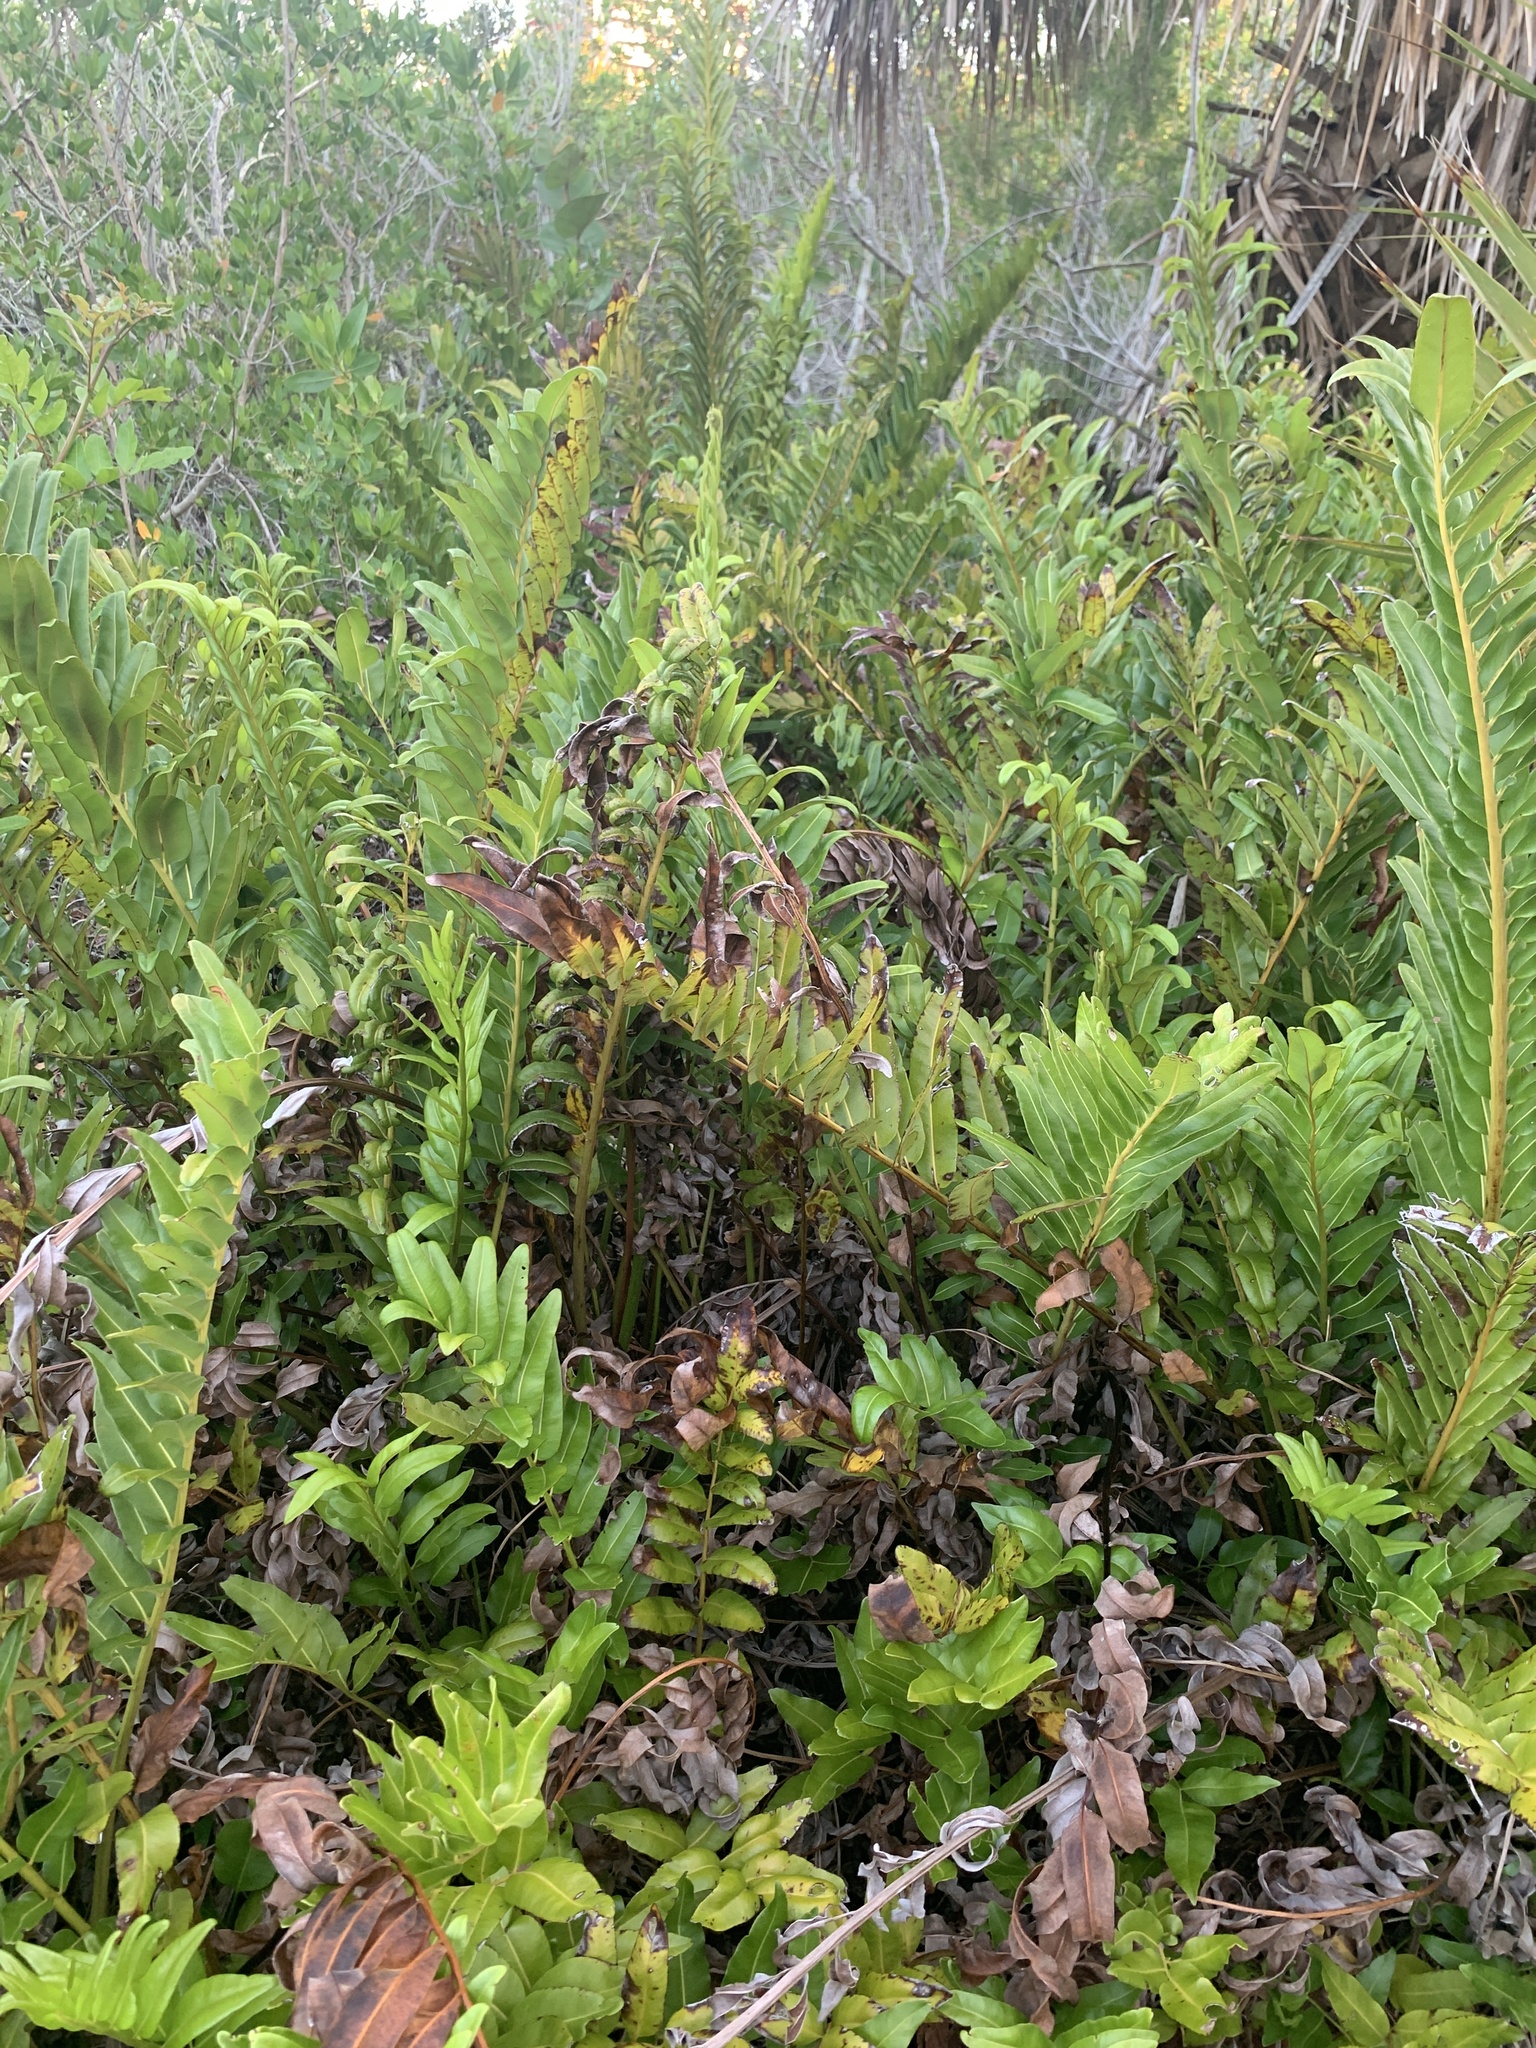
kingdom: Plantae
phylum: Tracheophyta
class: Polypodiopsida
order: Polypodiales
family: Pteridaceae
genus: Acrostichum
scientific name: Acrostichum danaeifolium
